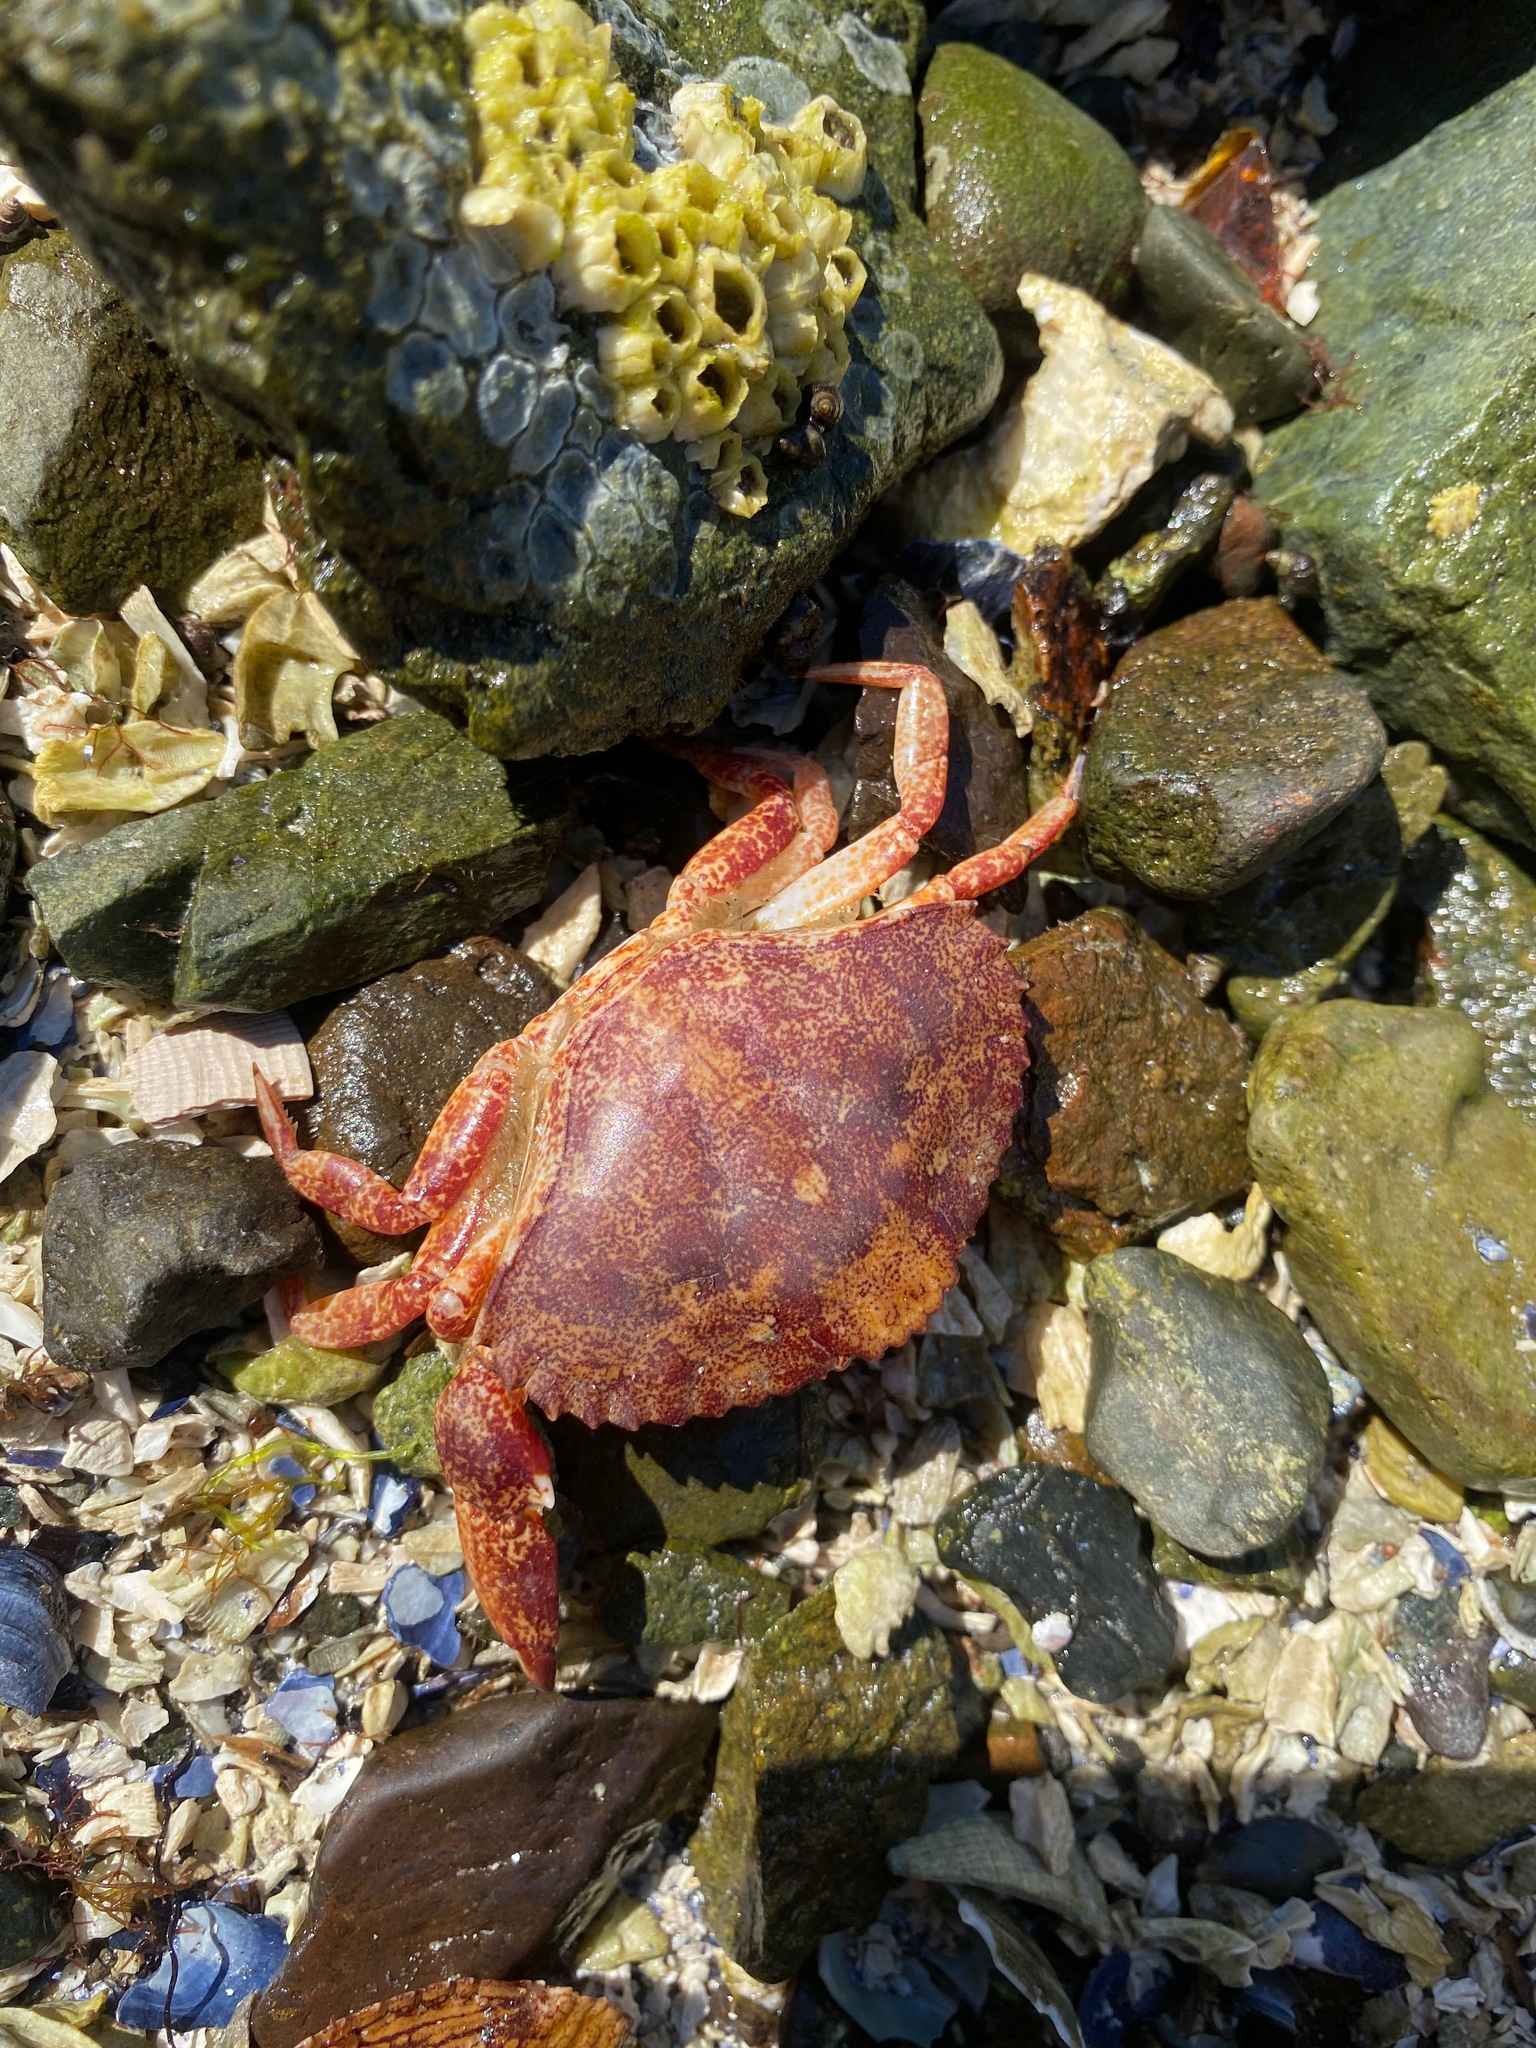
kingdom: Animalia
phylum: Arthropoda
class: Malacostraca
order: Decapoda
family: Cancridae
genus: Cancer
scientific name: Cancer productus
